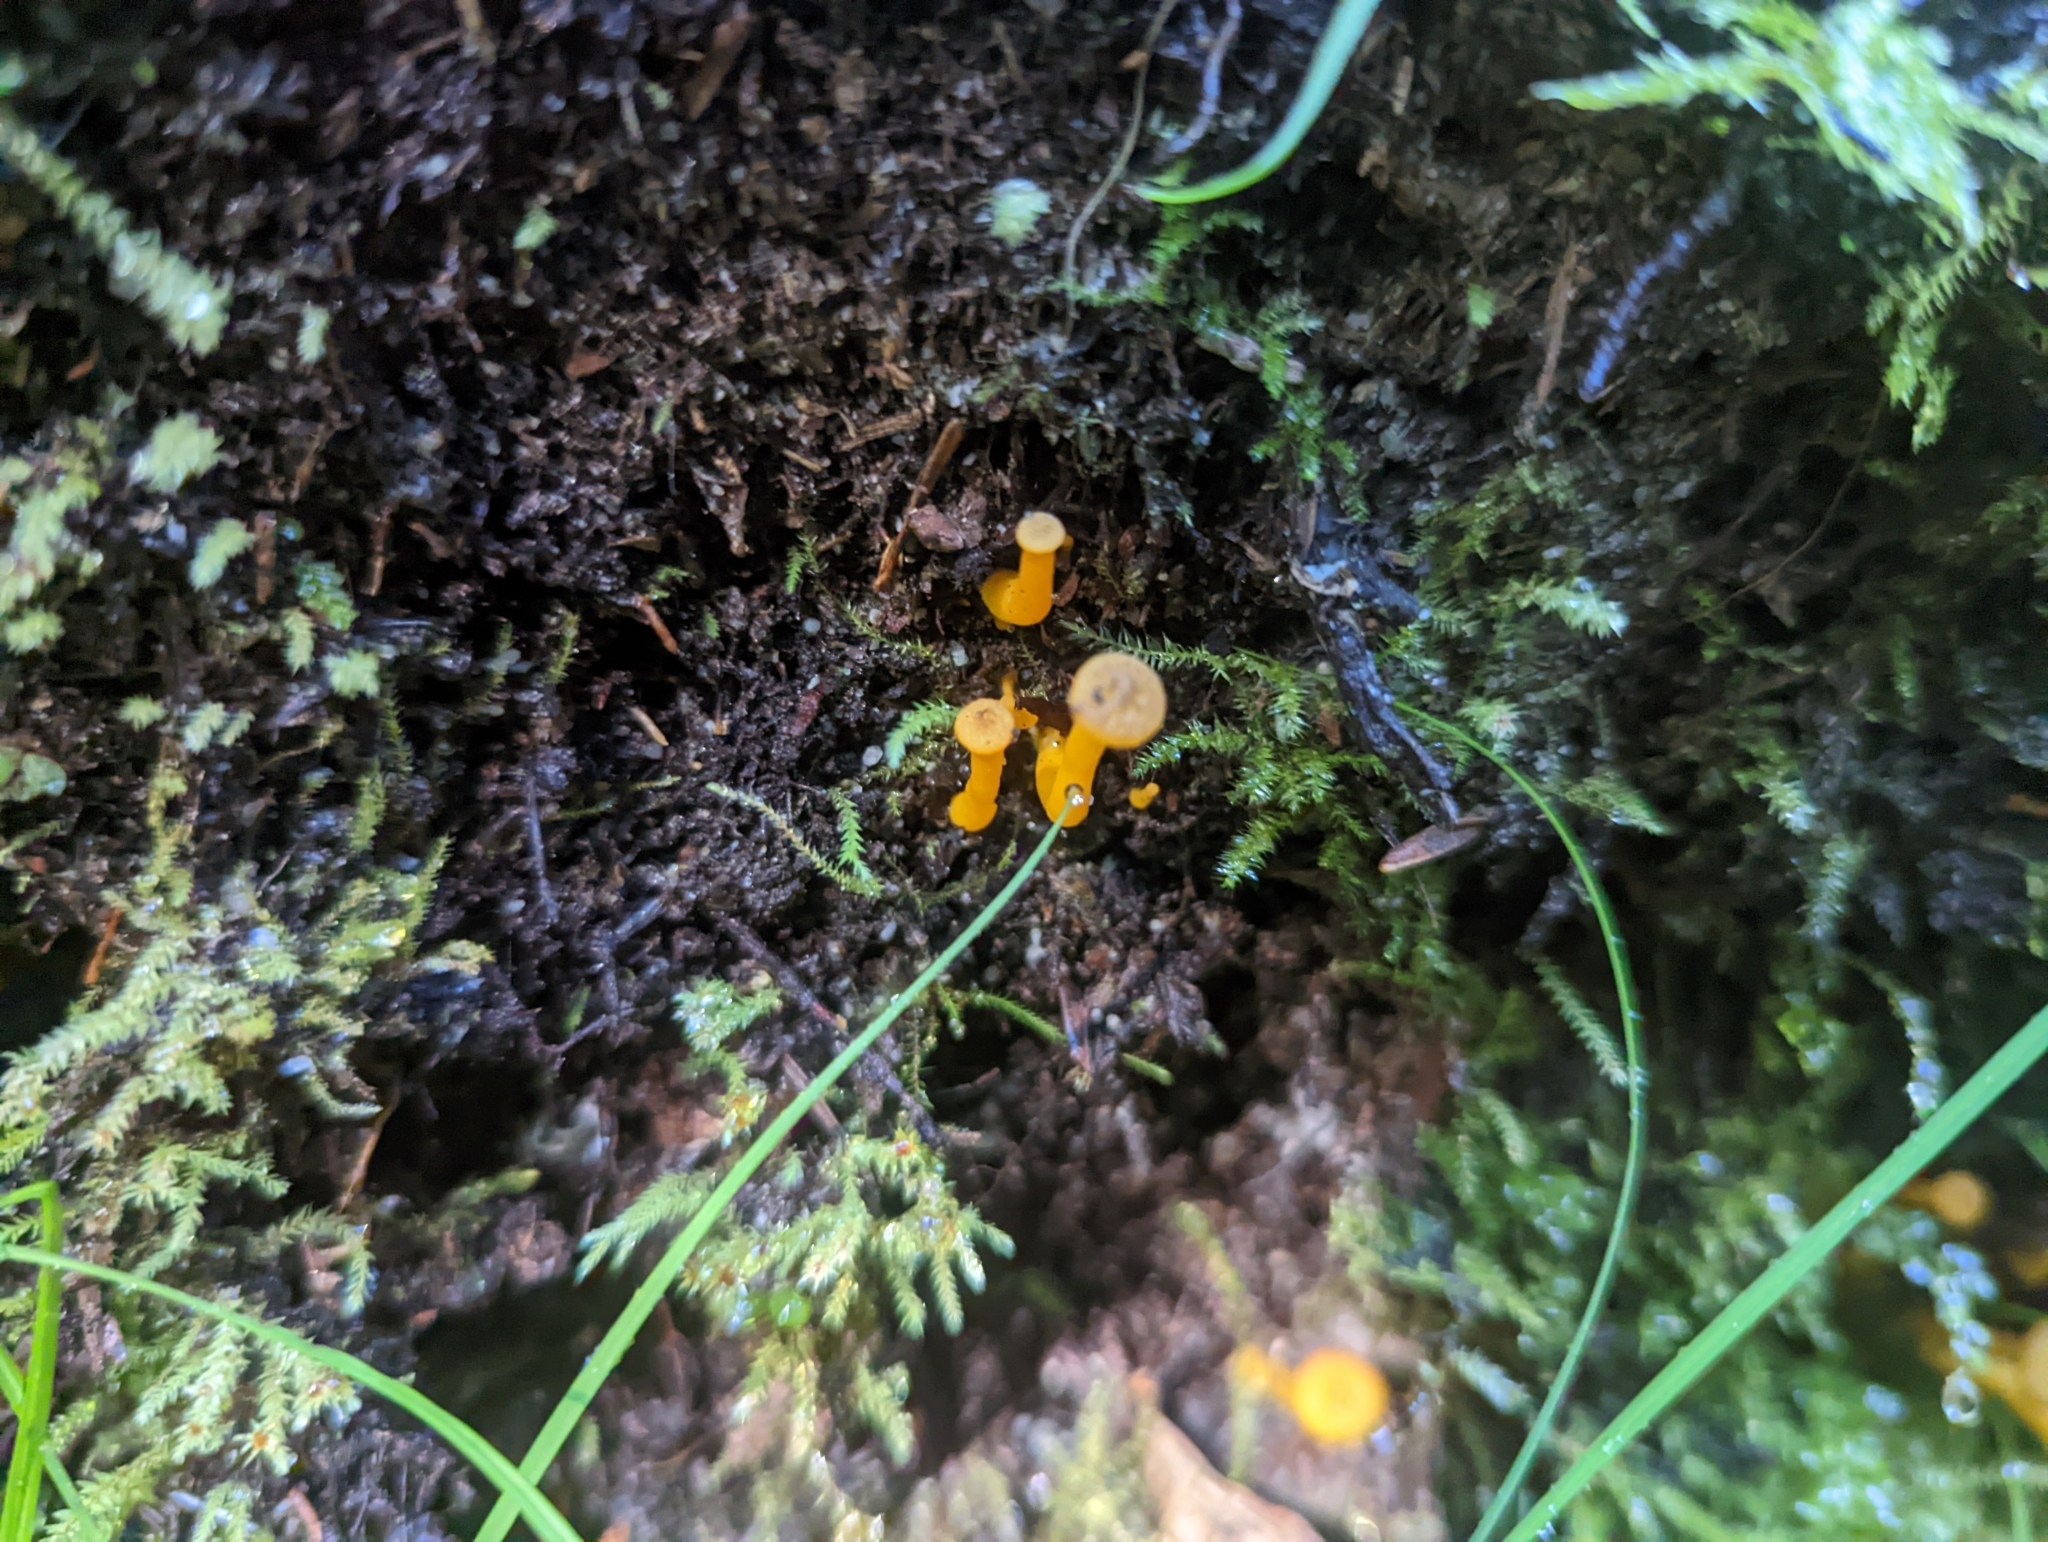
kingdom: Fungi
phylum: Basidiomycota
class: Agaricomycetes
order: Cantharellales
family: Hydnaceae
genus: Craterellus
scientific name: Craterellus tubaeformis
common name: Yellowfoot
